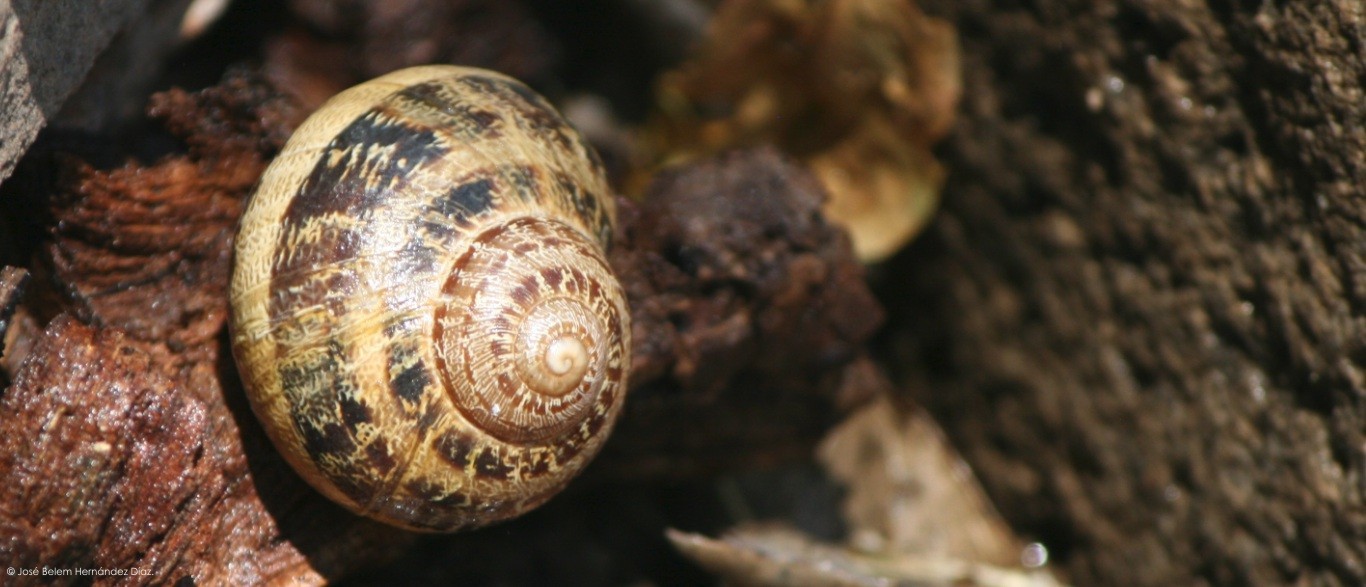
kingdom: Animalia
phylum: Mollusca
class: Gastropoda
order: Stylommatophora
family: Helicidae
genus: Cornu
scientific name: Cornu aspersum
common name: Brown garden snail
